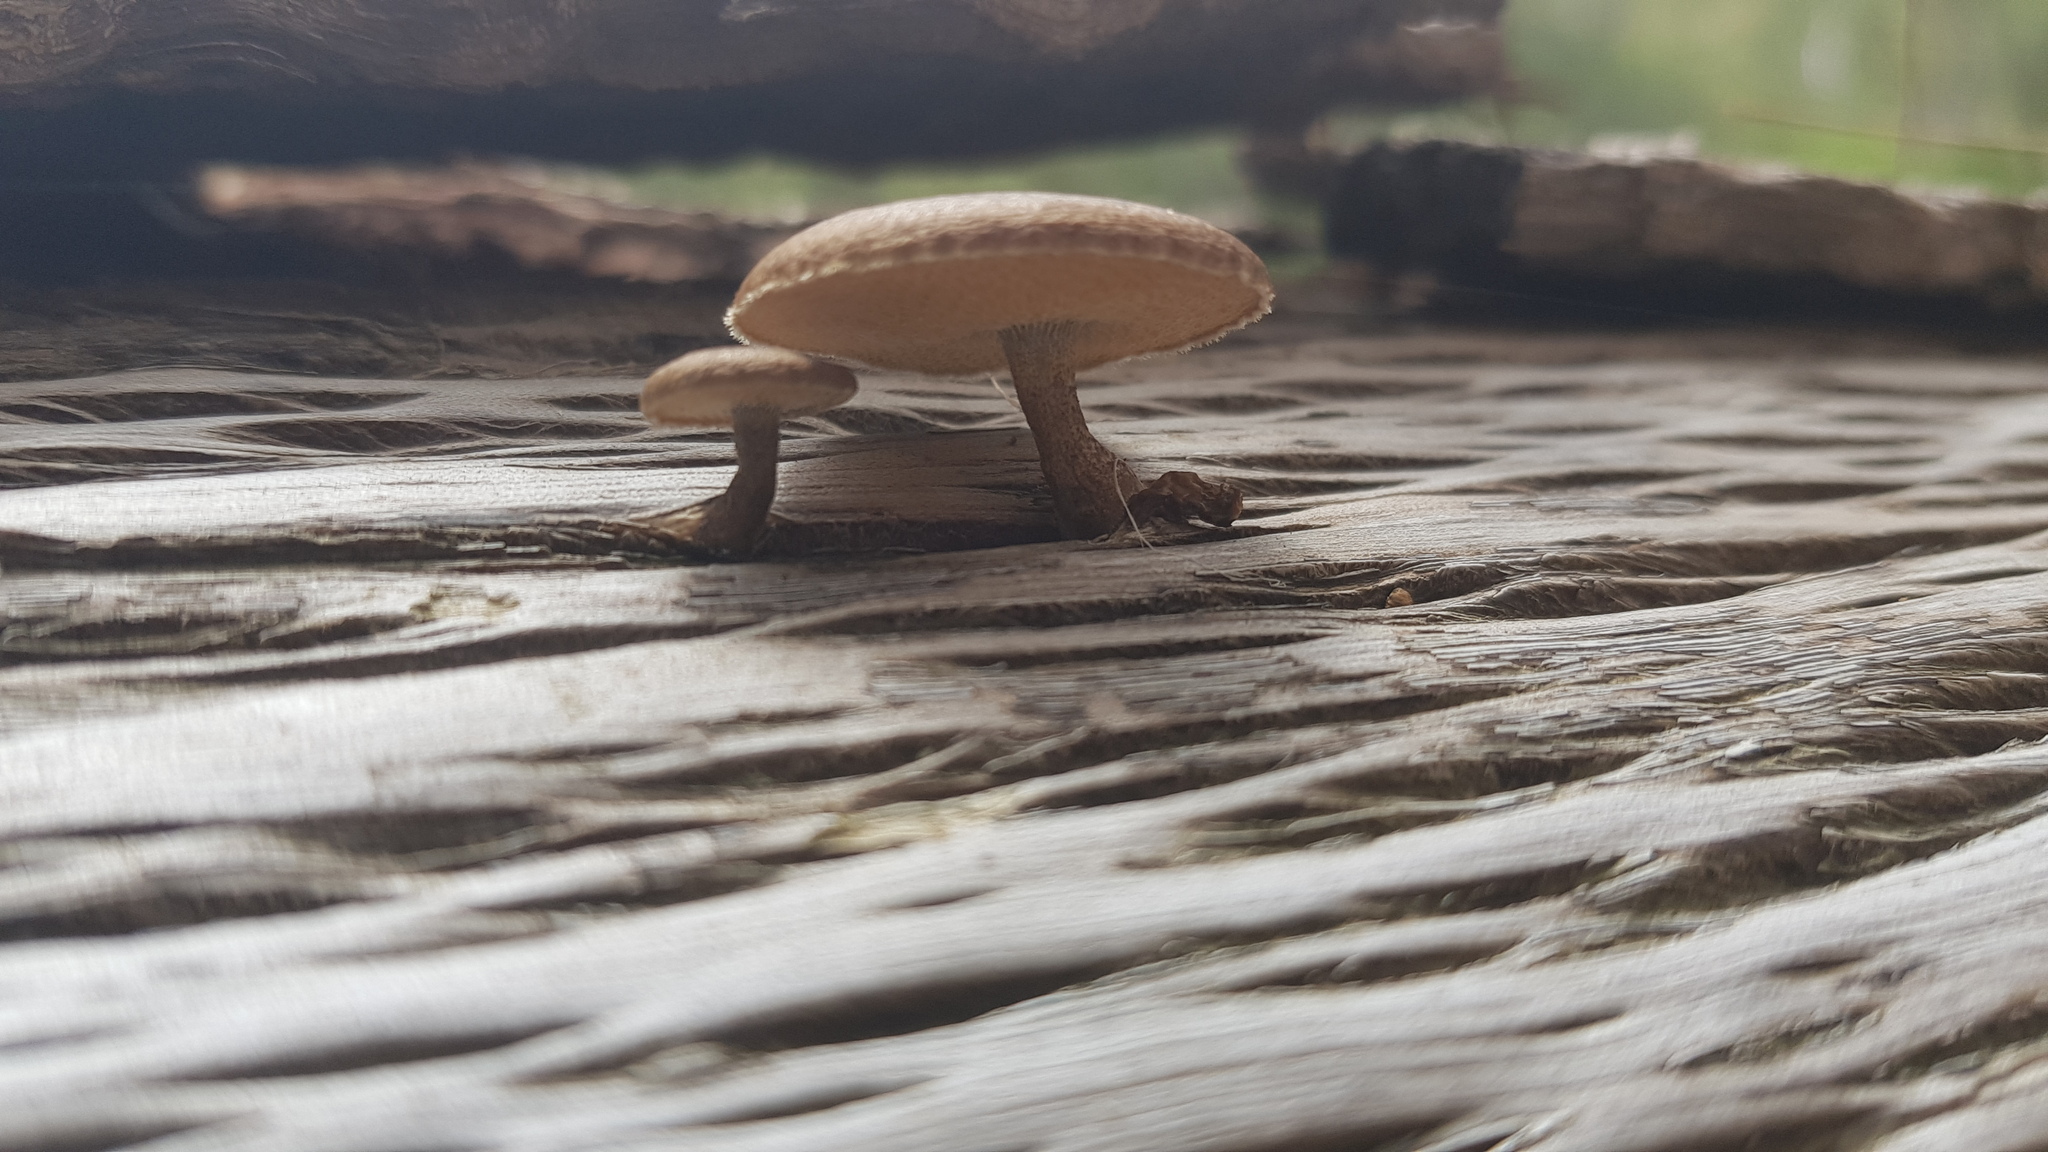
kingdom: Fungi
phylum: Basidiomycota
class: Agaricomycetes
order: Polyporales
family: Polyporaceae
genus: Lentinus
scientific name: Lentinus arcularius
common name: Spring polypore
